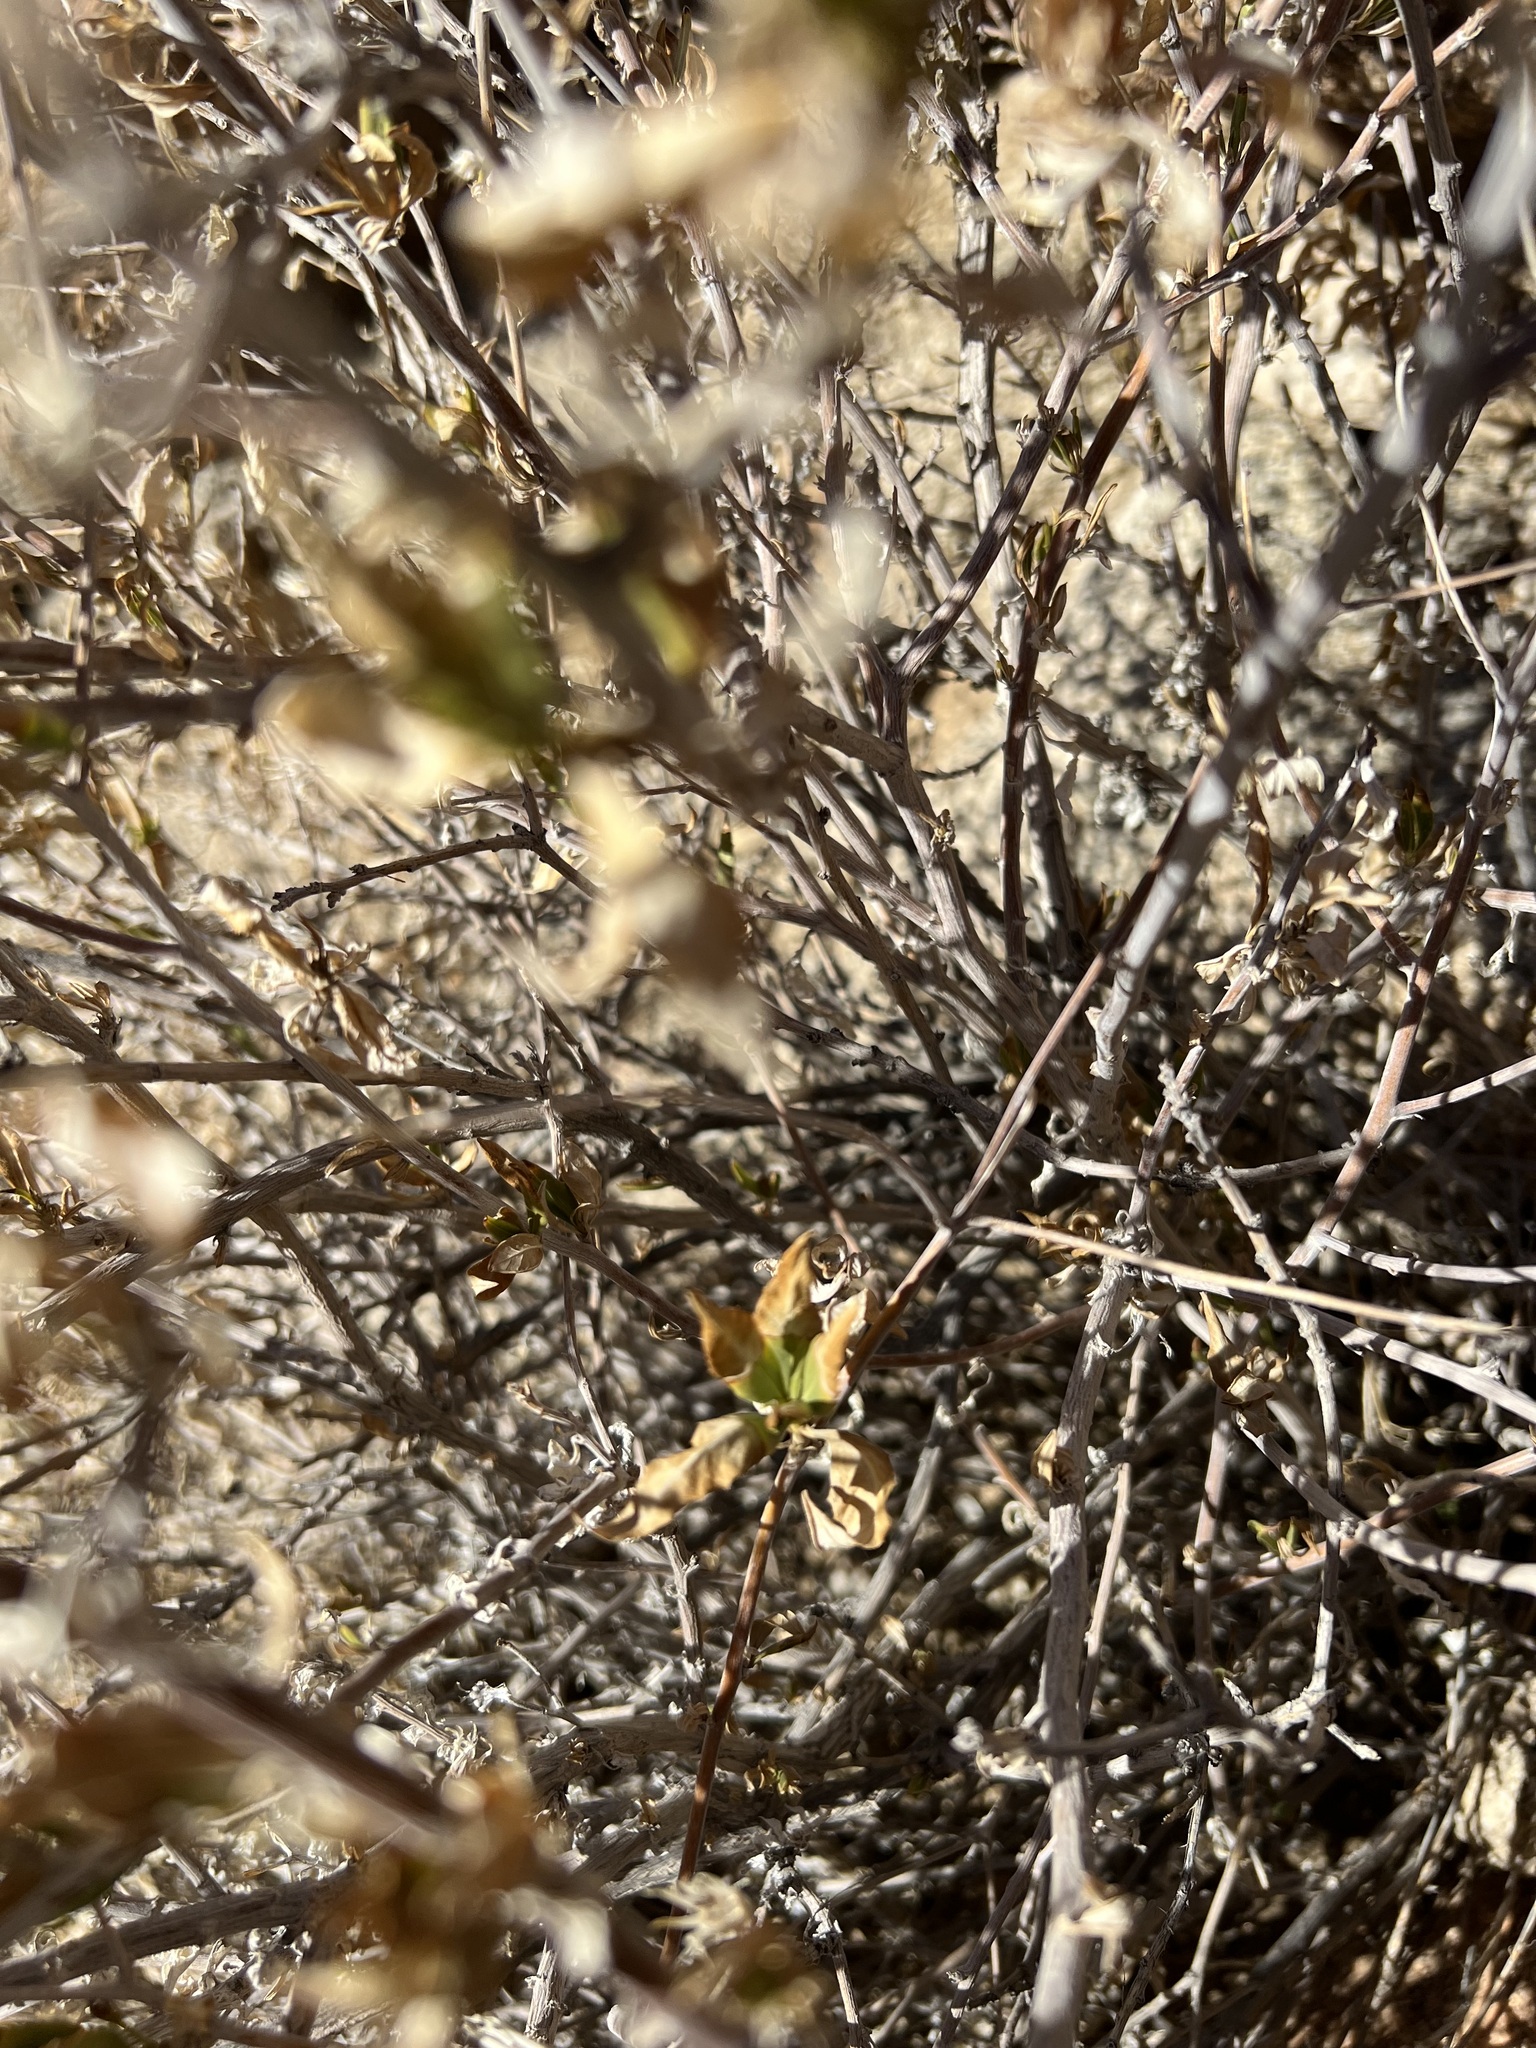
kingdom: Plantae
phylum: Tracheophyta
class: Magnoliopsida
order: Asterales
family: Asteraceae
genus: Trixis
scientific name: Trixis californica
